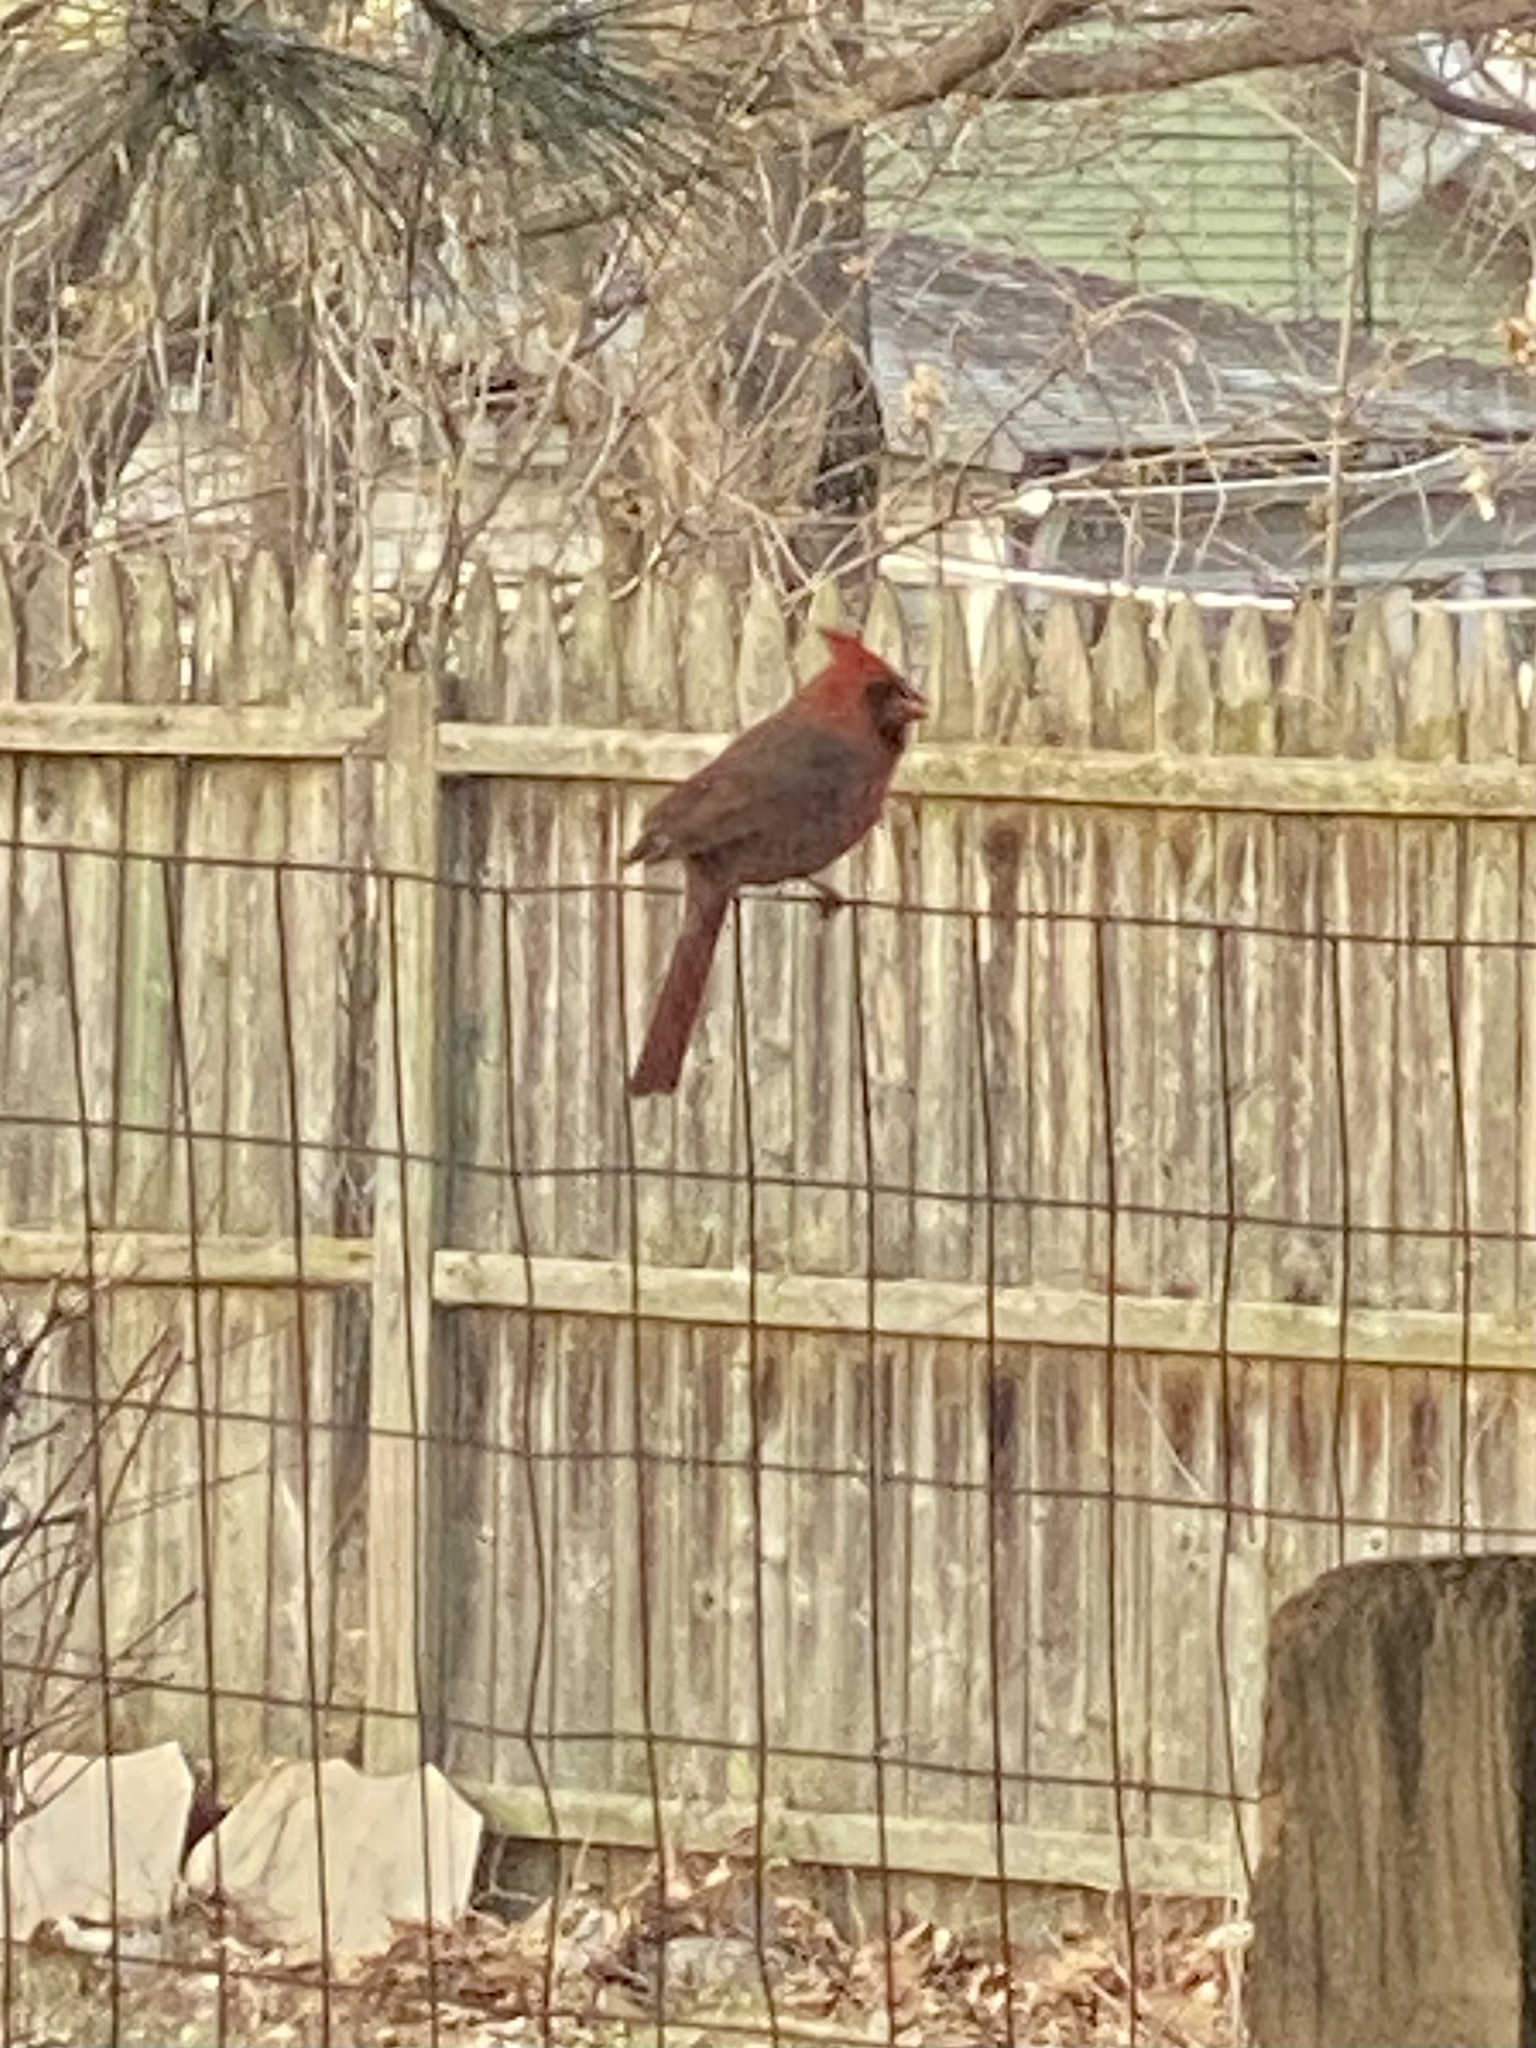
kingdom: Animalia
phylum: Chordata
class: Aves
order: Passeriformes
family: Cardinalidae
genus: Cardinalis
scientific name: Cardinalis cardinalis
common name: Northern cardinal
